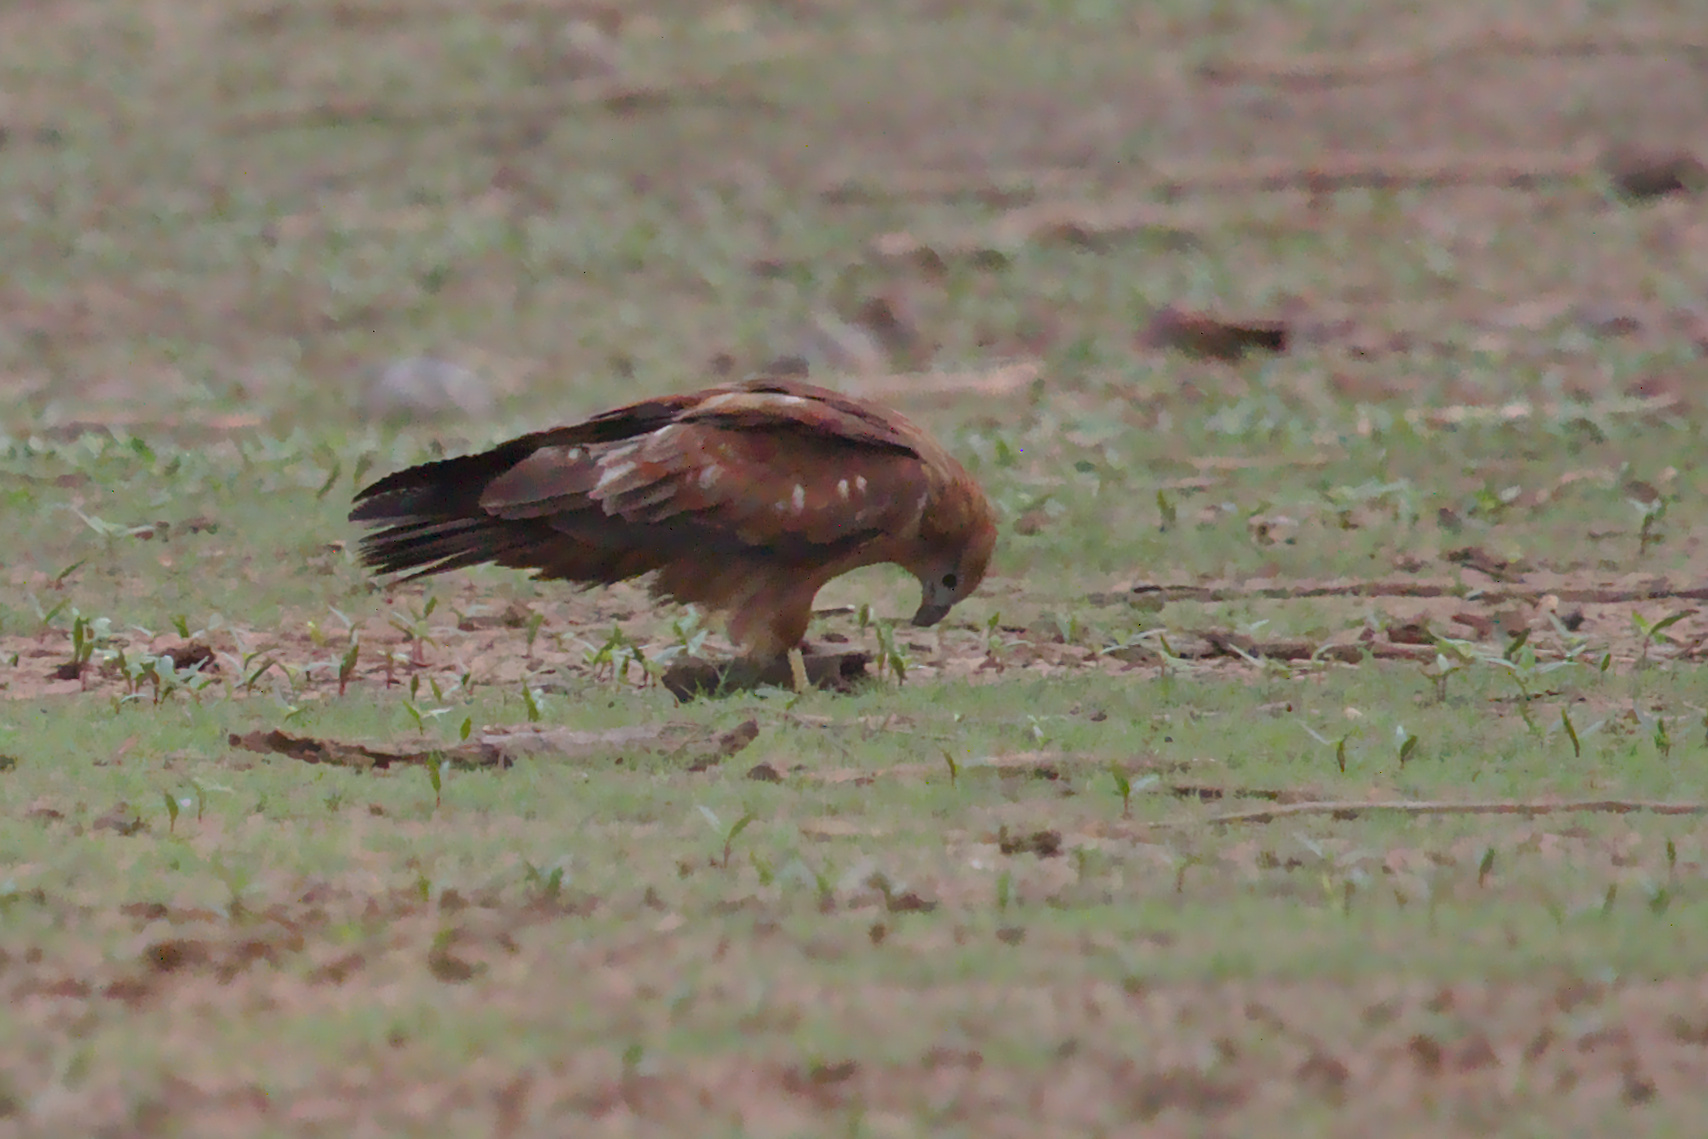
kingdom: Animalia
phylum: Chordata
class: Aves
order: Accipitriformes
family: Accipitridae
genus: Haliastur
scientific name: Haliastur indus
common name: Brahminy kite
